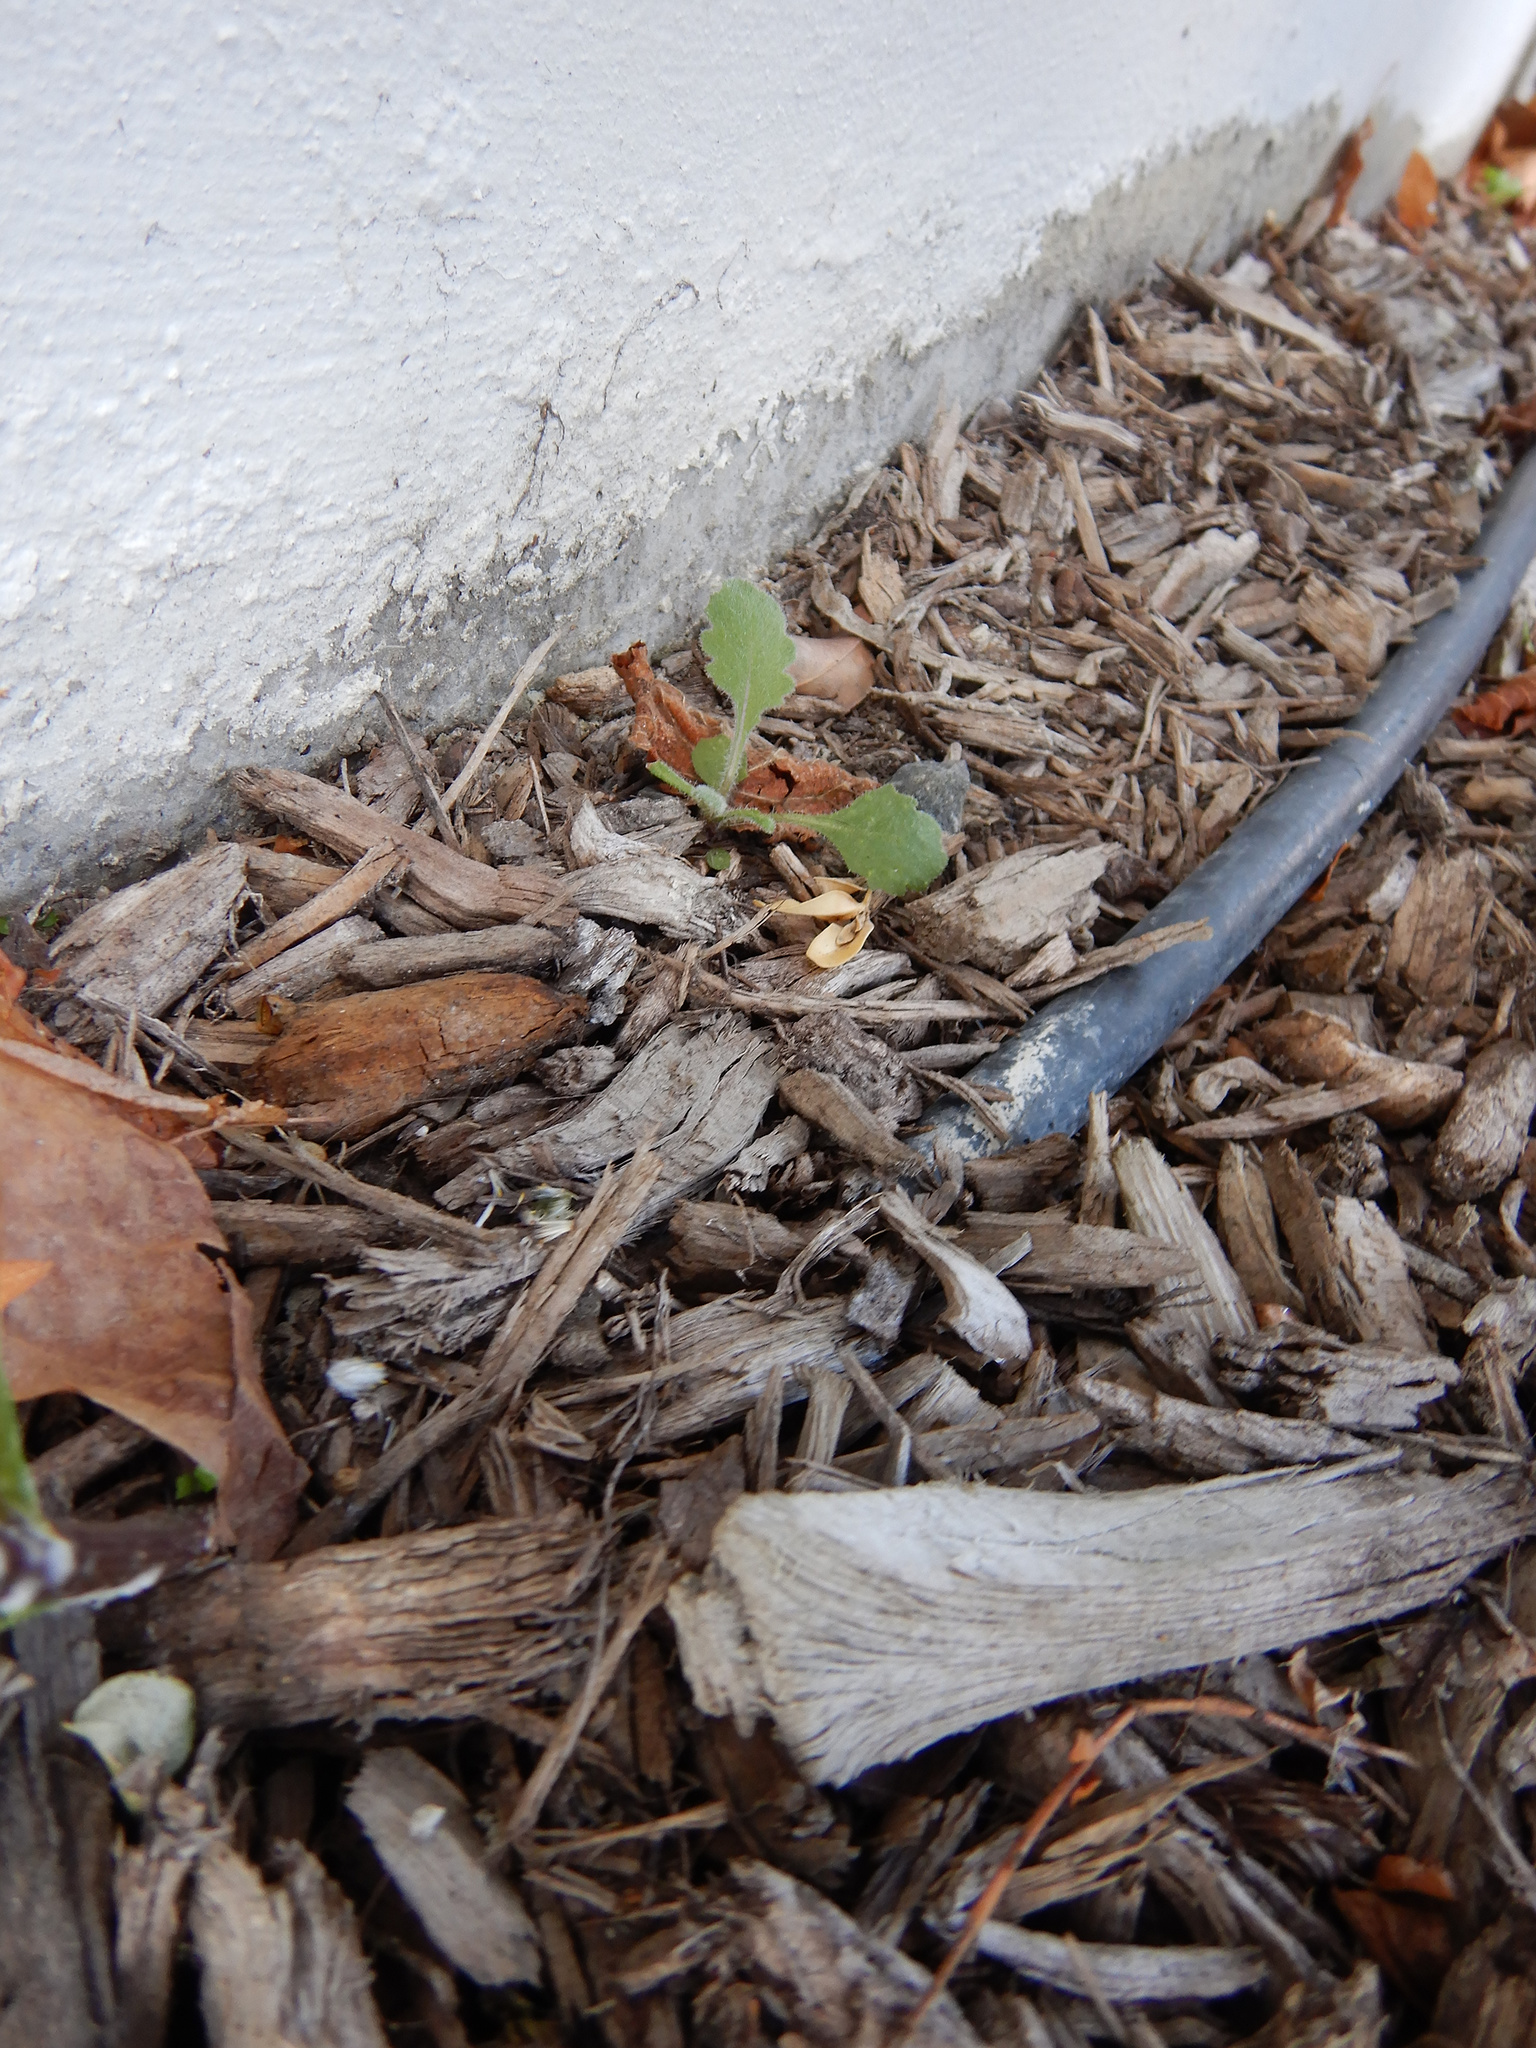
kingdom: Plantae
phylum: Tracheophyta
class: Magnoliopsida
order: Asterales
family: Asteraceae
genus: Senecio
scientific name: Senecio glomeratus
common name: Cutleaf burnweed
